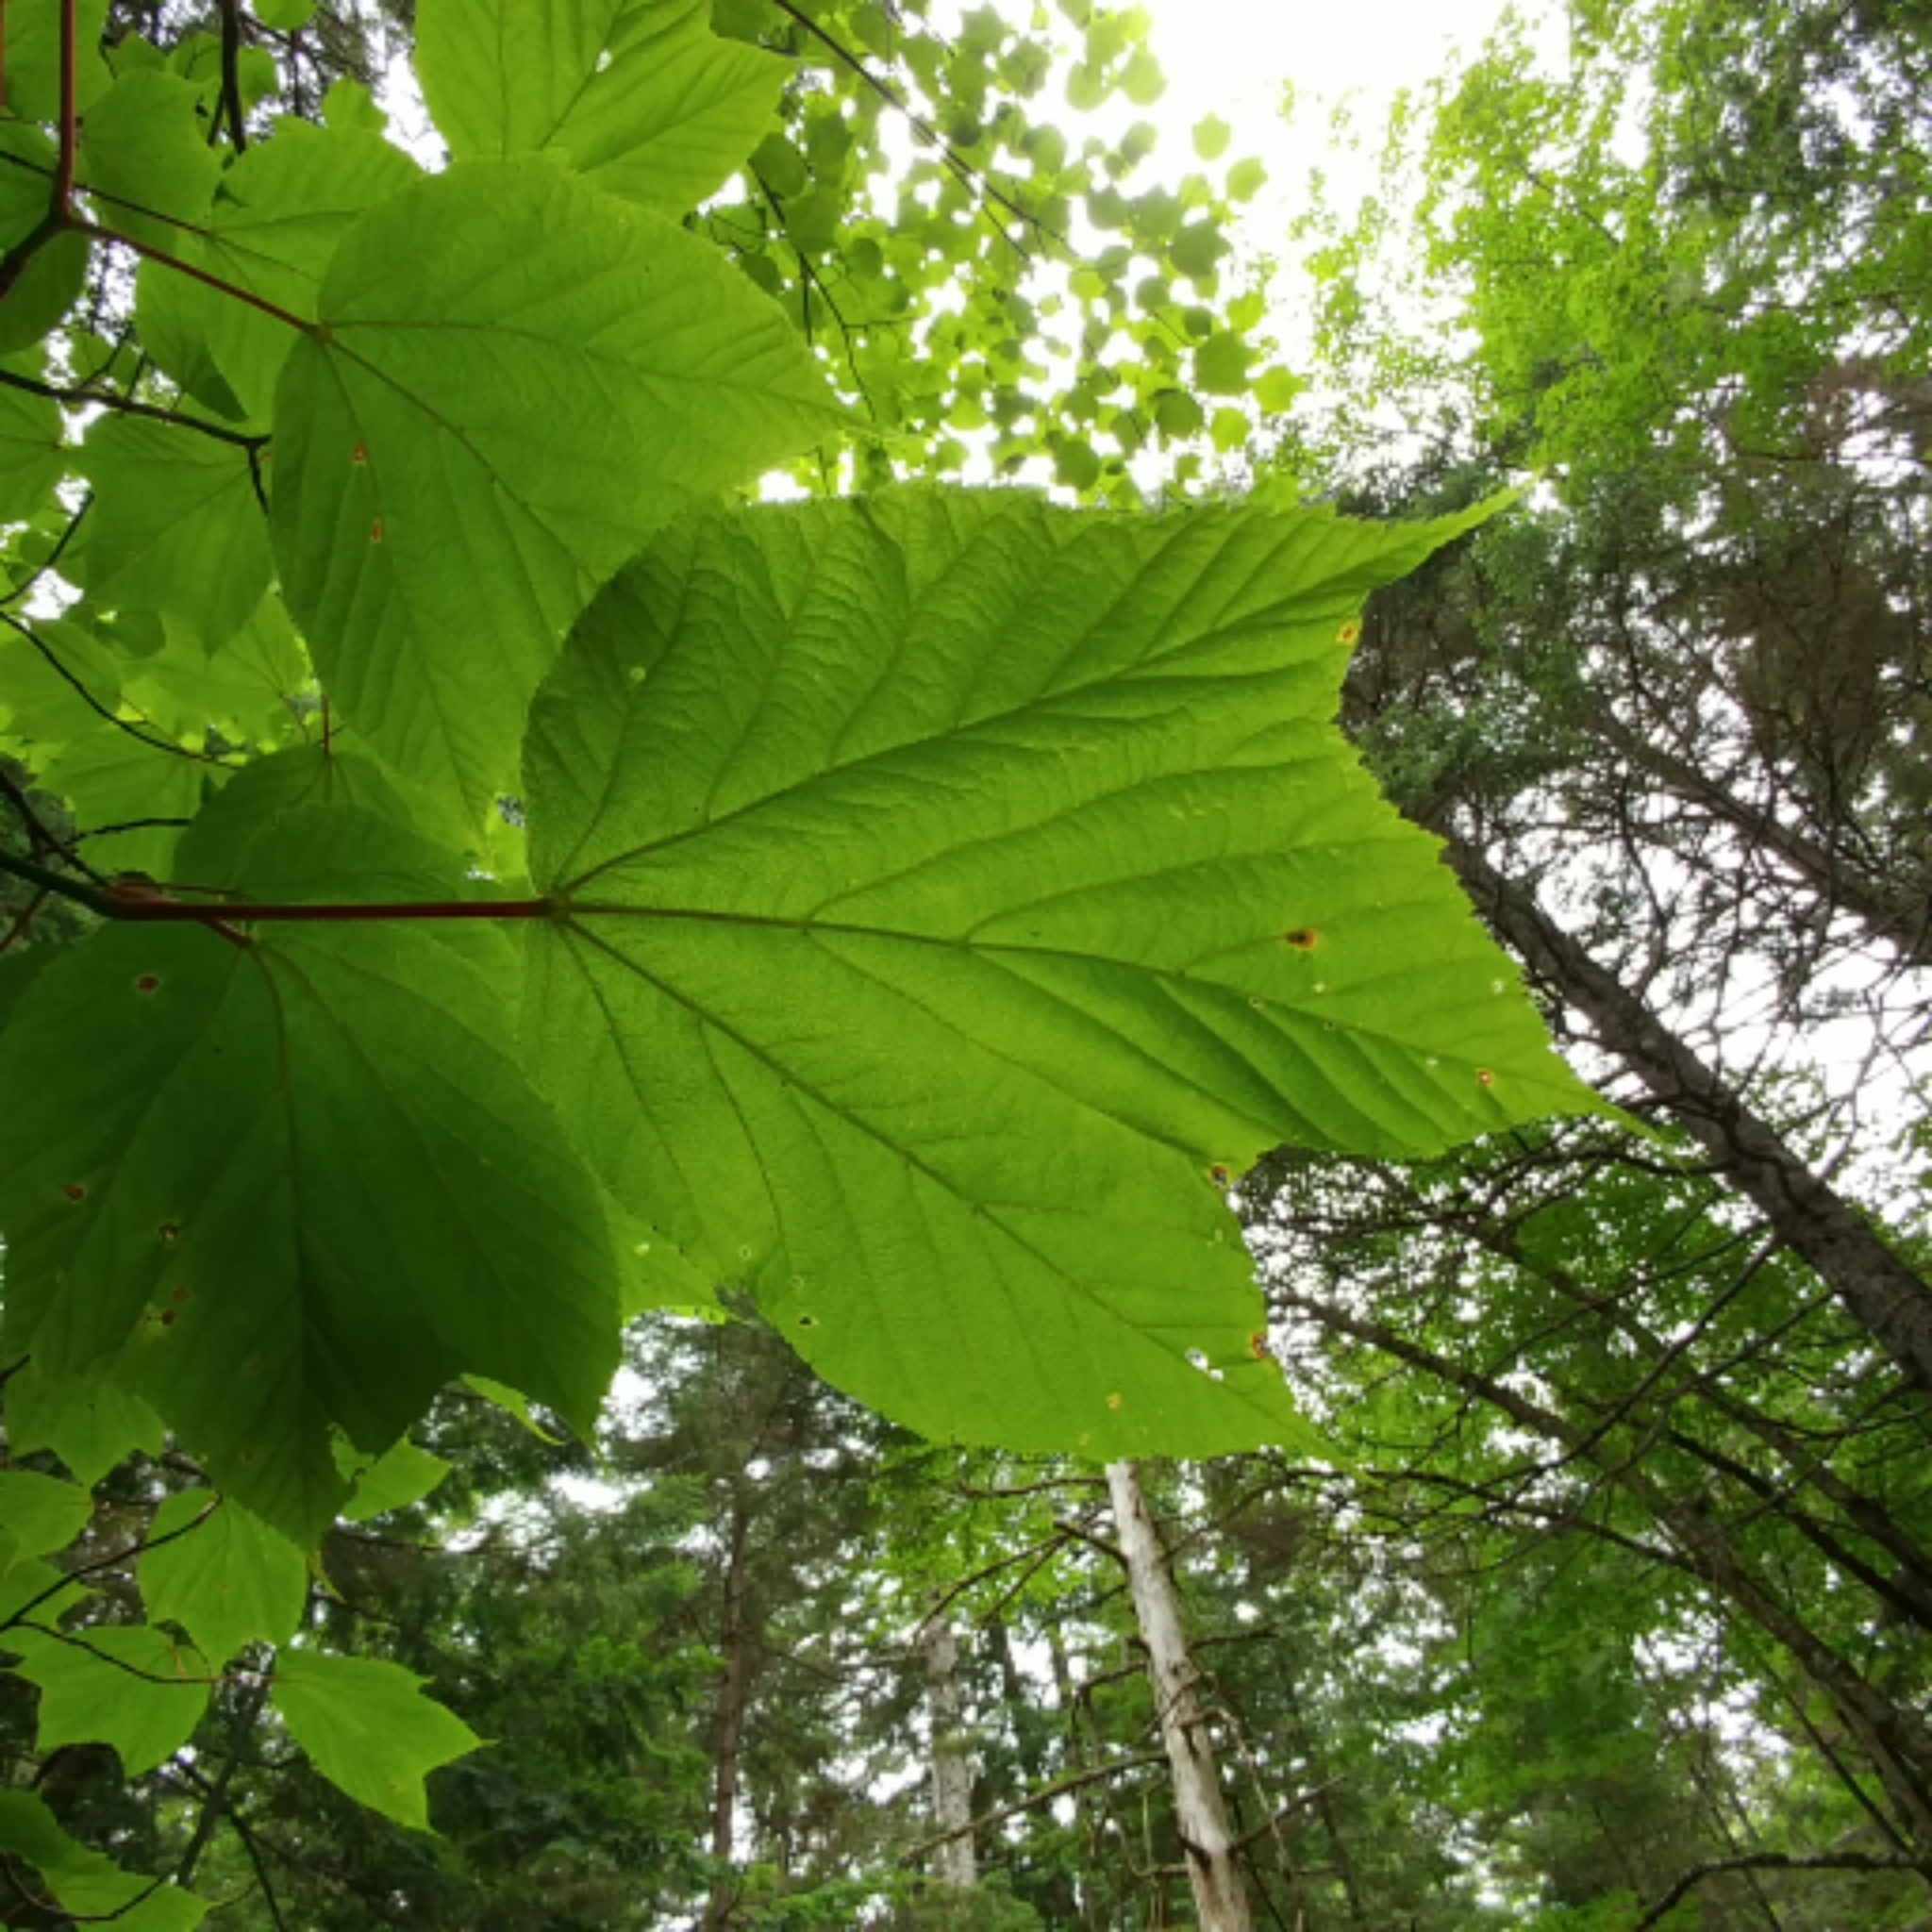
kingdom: Plantae
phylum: Tracheophyta
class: Magnoliopsida
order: Sapindales
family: Sapindaceae
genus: Acer
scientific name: Acer pensylvanicum
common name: Moosewood
